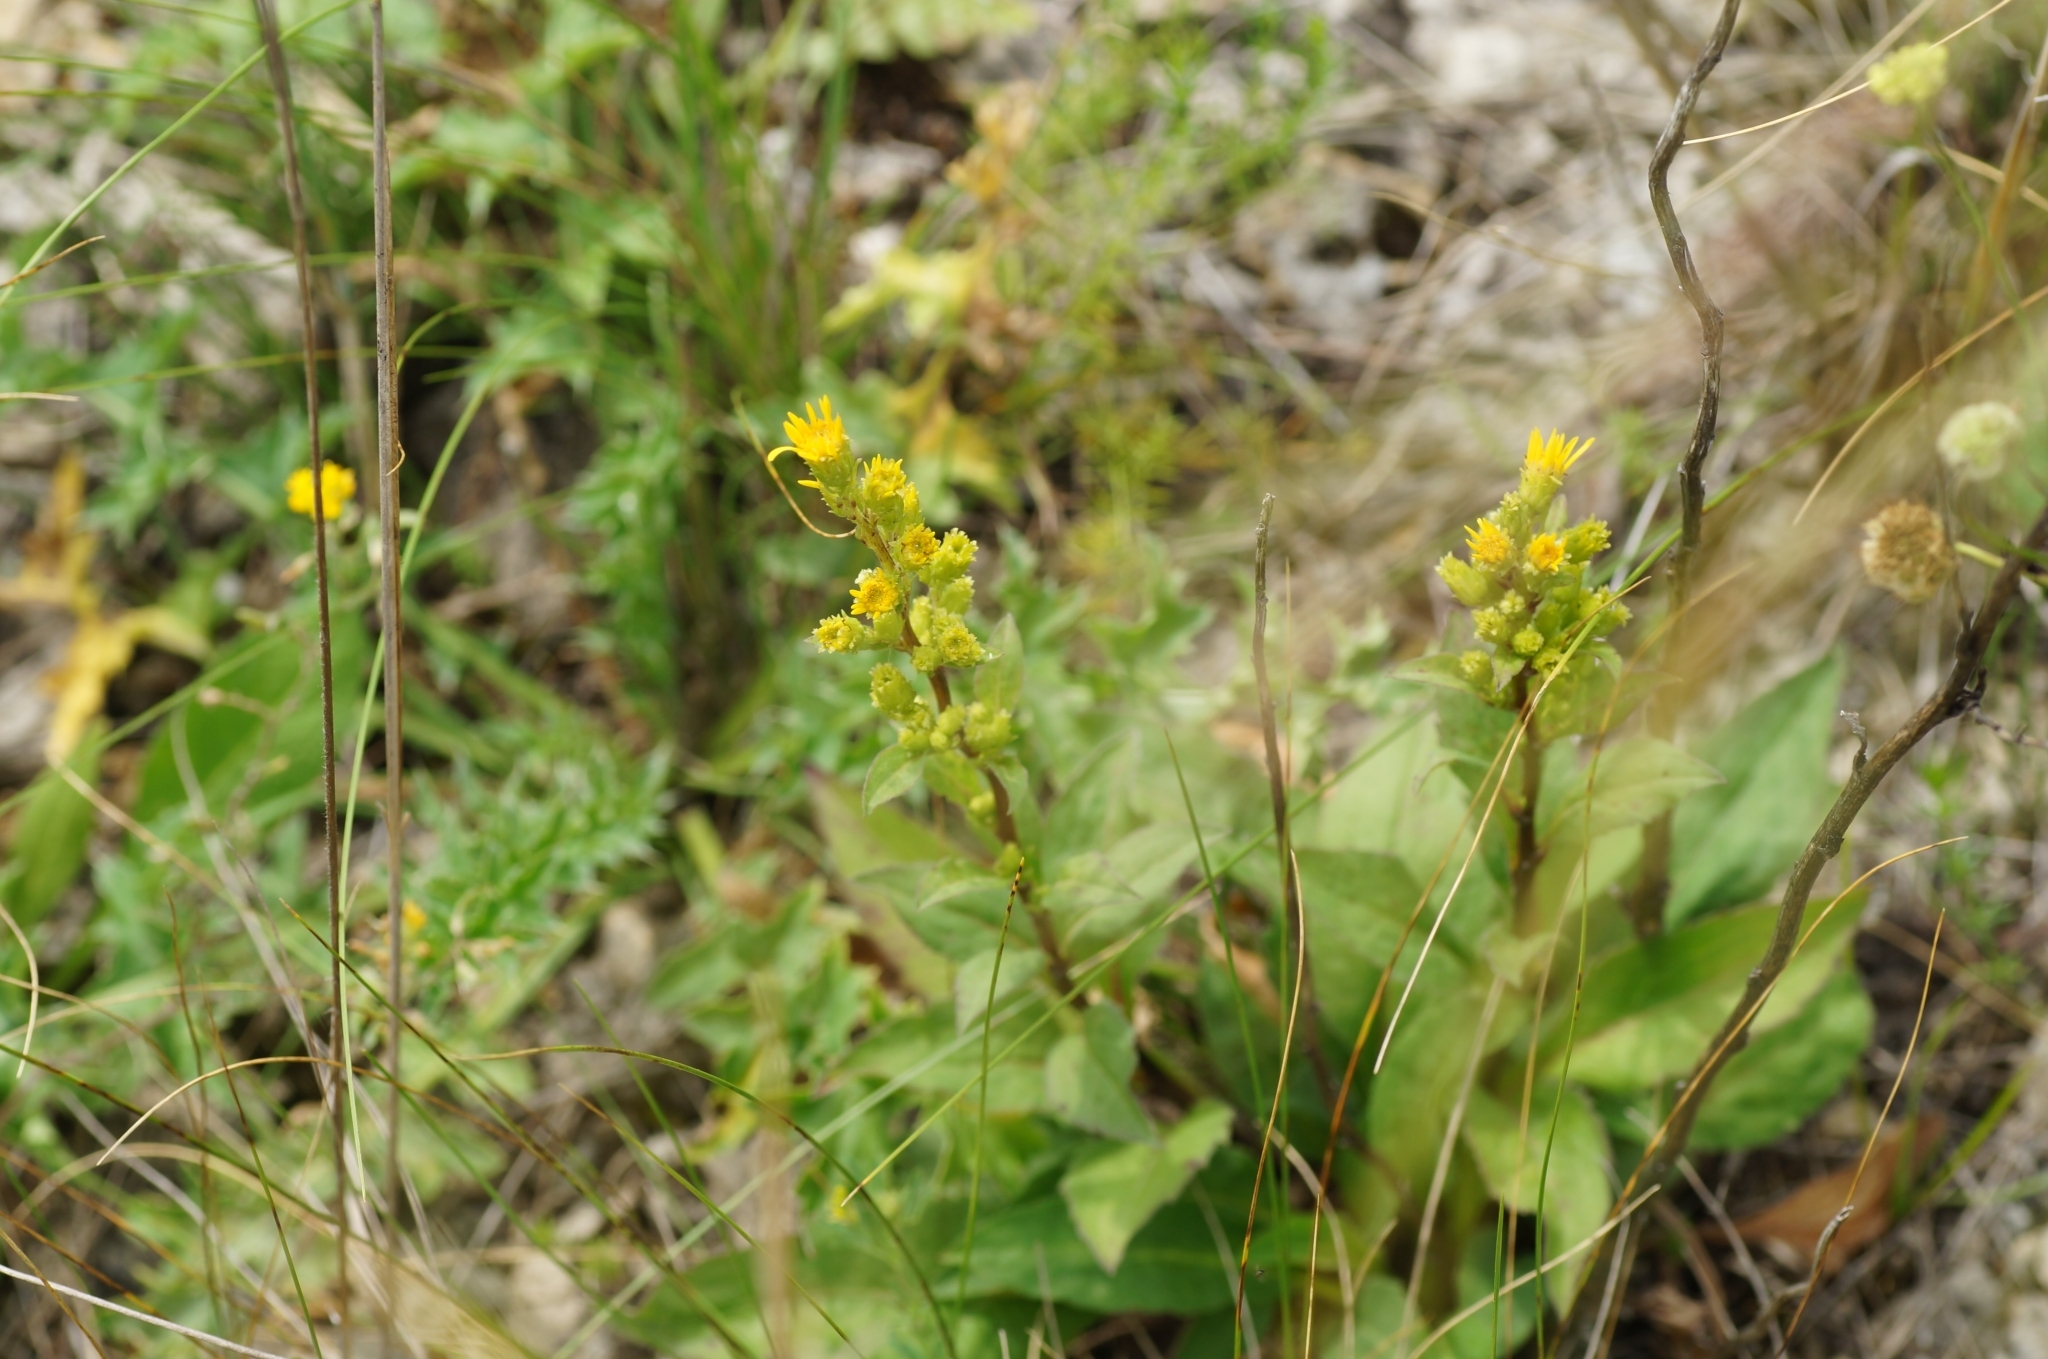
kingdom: Plantae
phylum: Tracheophyta
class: Magnoliopsida
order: Asterales
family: Asteraceae
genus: Solidago
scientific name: Solidago virgaurea
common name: Goldenrod
